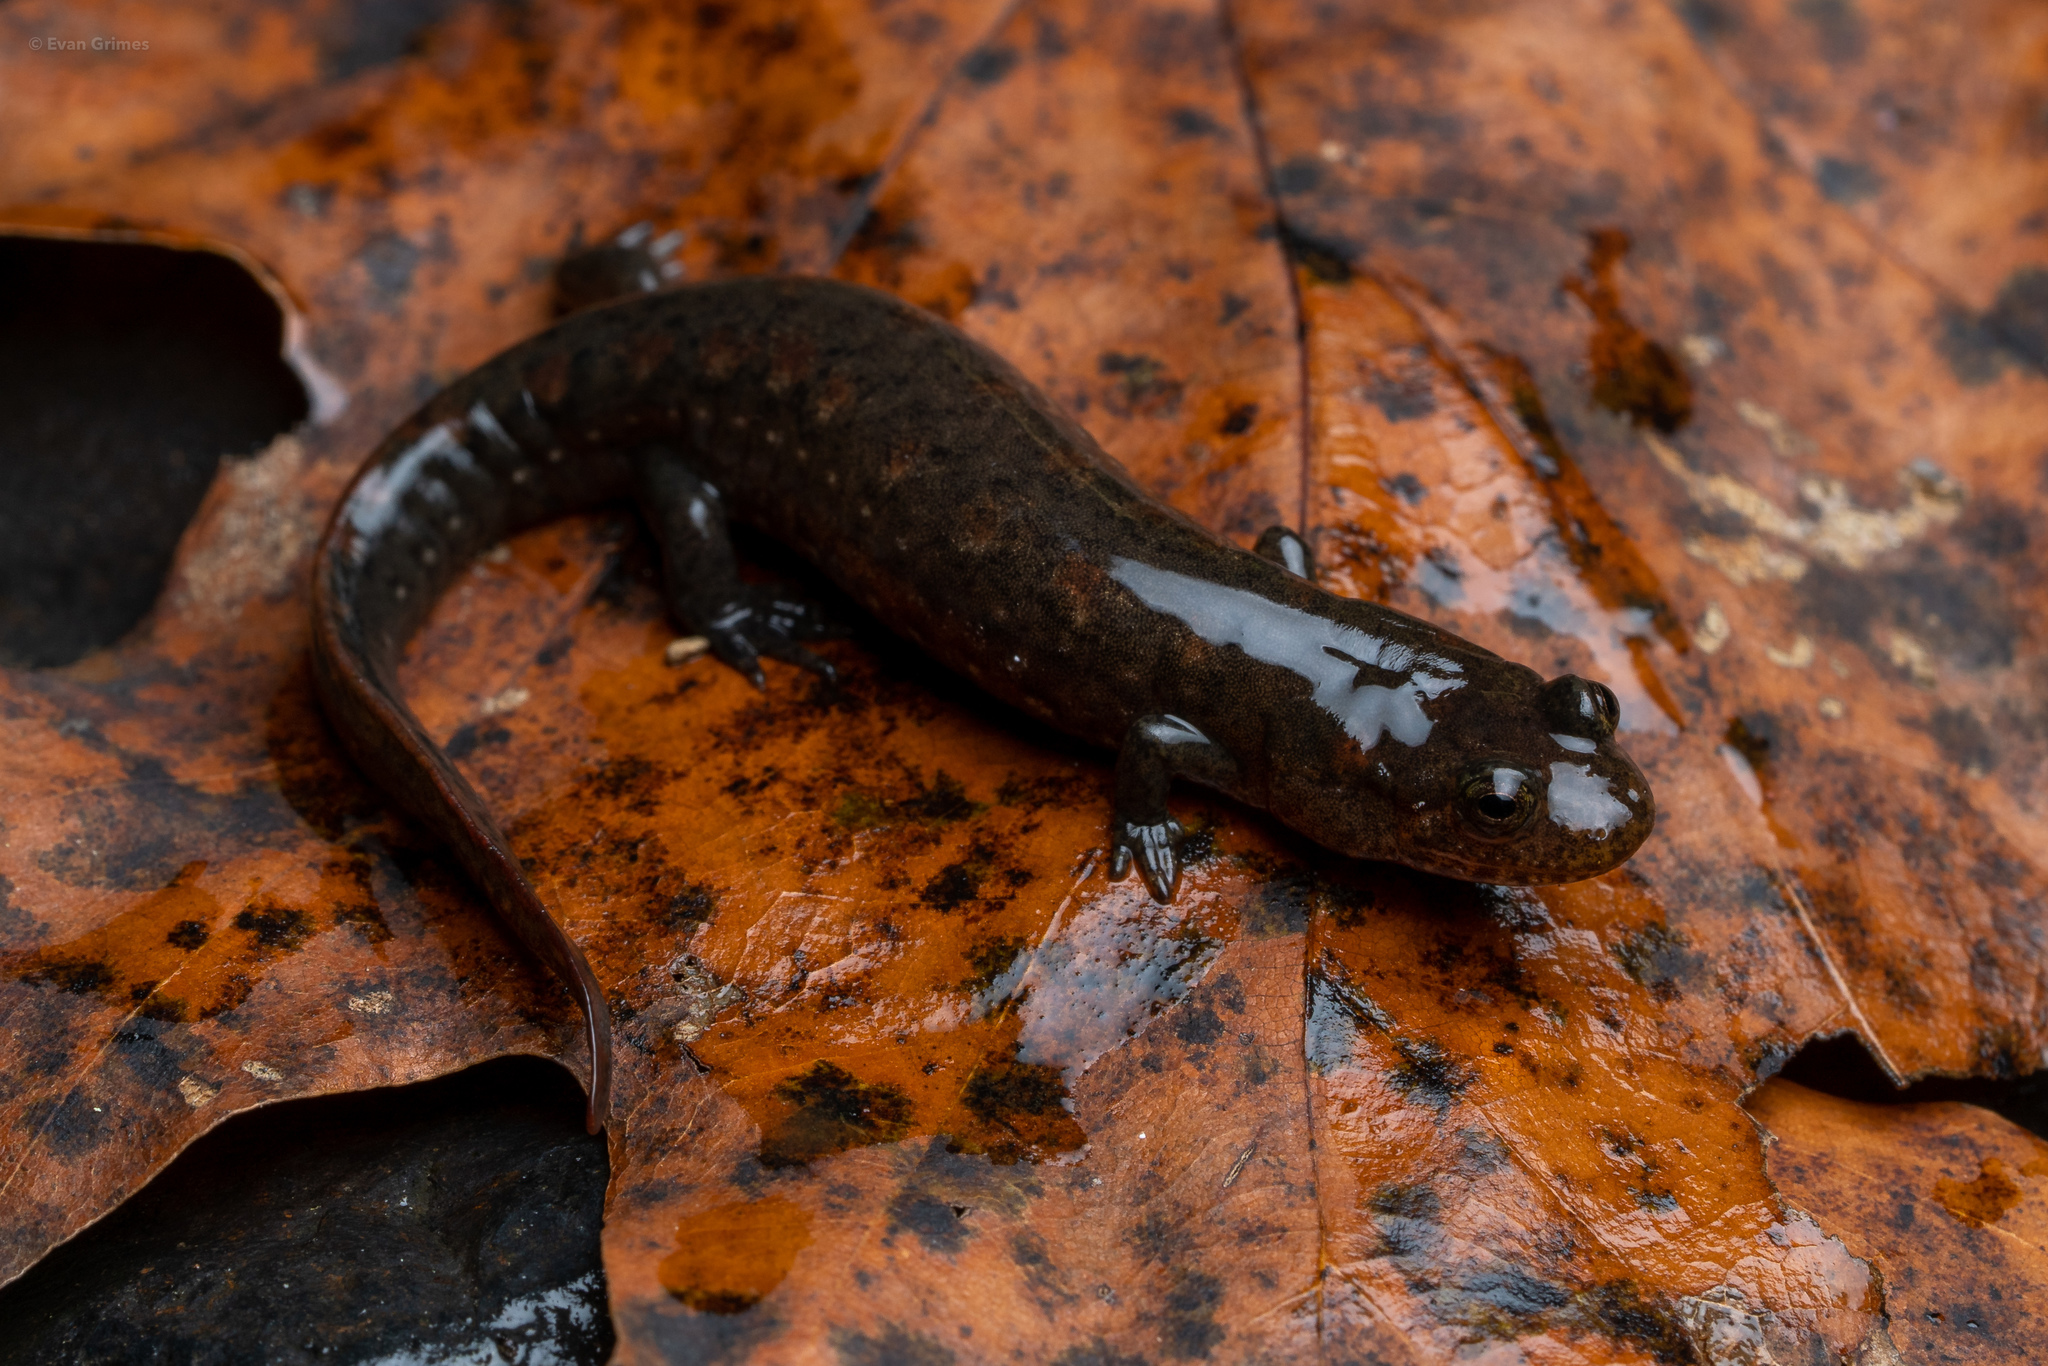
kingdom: Animalia
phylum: Chordata
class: Amphibia
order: Caudata
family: Plethodontidae
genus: Desmognathus
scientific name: Desmognathus brimleyorum
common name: Ouachita dusky salamander
